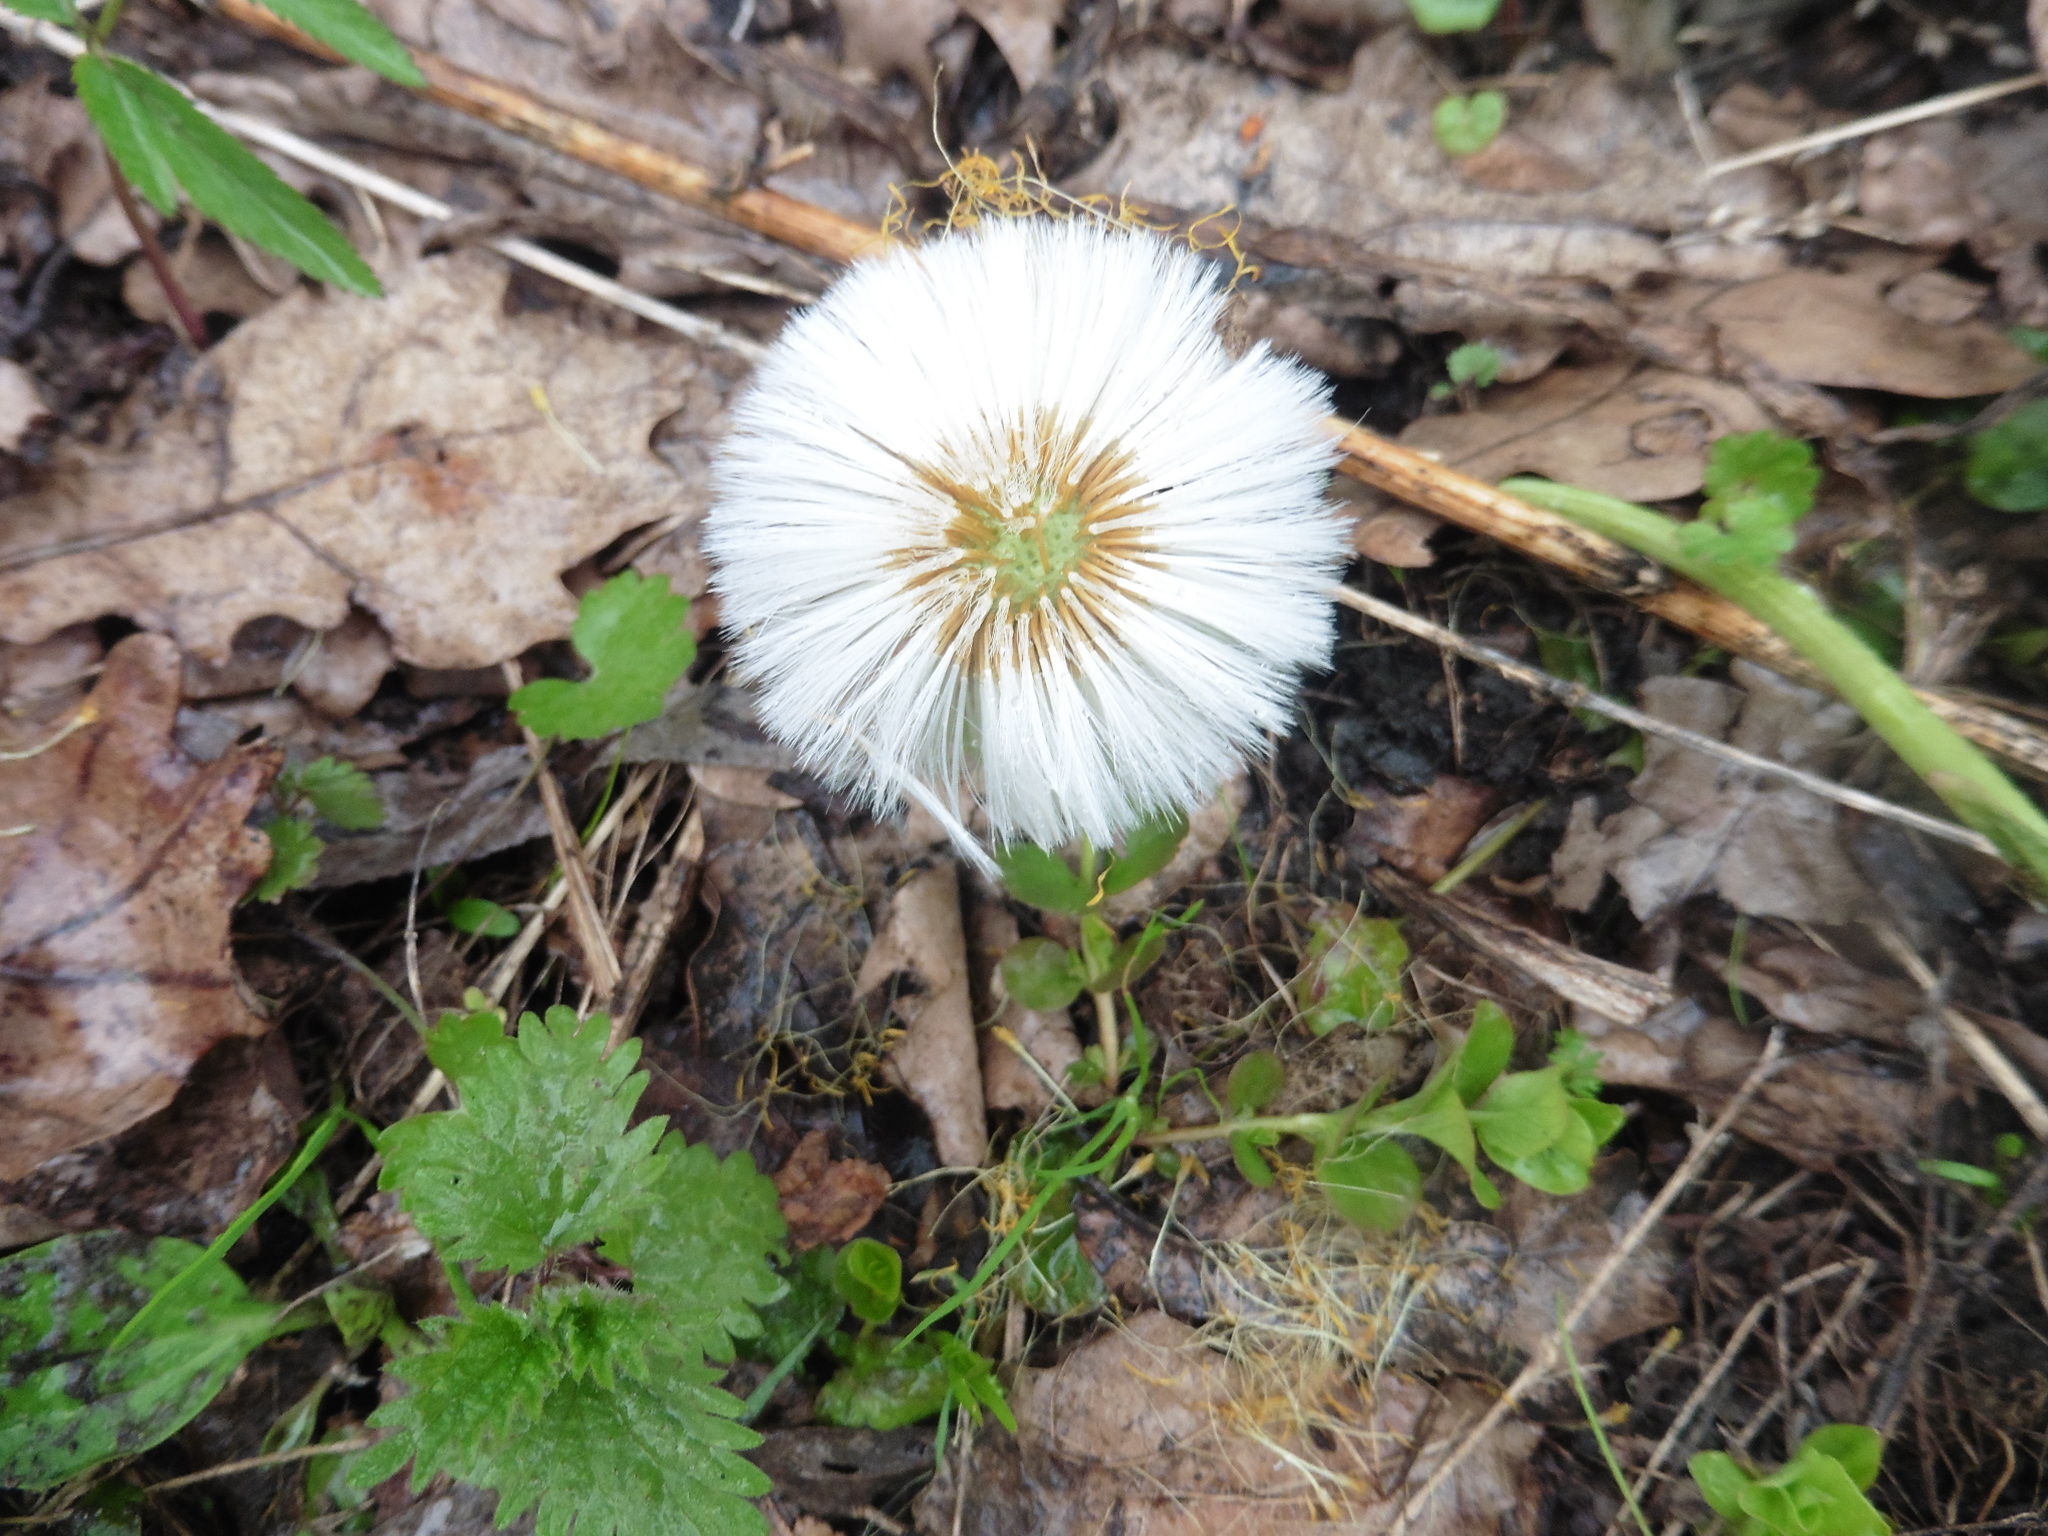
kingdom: Plantae
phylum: Tracheophyta
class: Magnoliopsida
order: Asterales
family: Asteraceae
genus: Tussilago
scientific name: Tussilago farfara
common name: Coltsfoot
